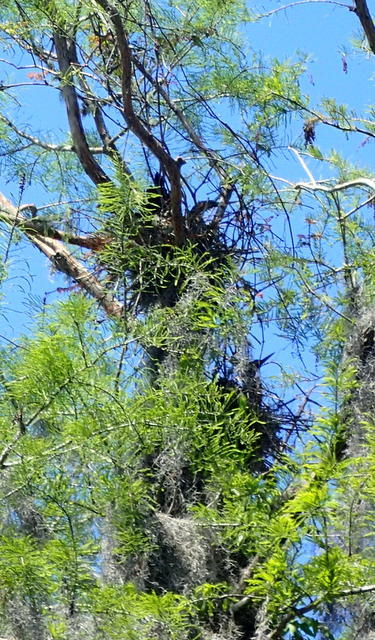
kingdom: Animalia
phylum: Chordata
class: Aves
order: Suliformes
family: Anhingidae
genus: Anhinga
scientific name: Anhinga anhinga
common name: Anhinga
